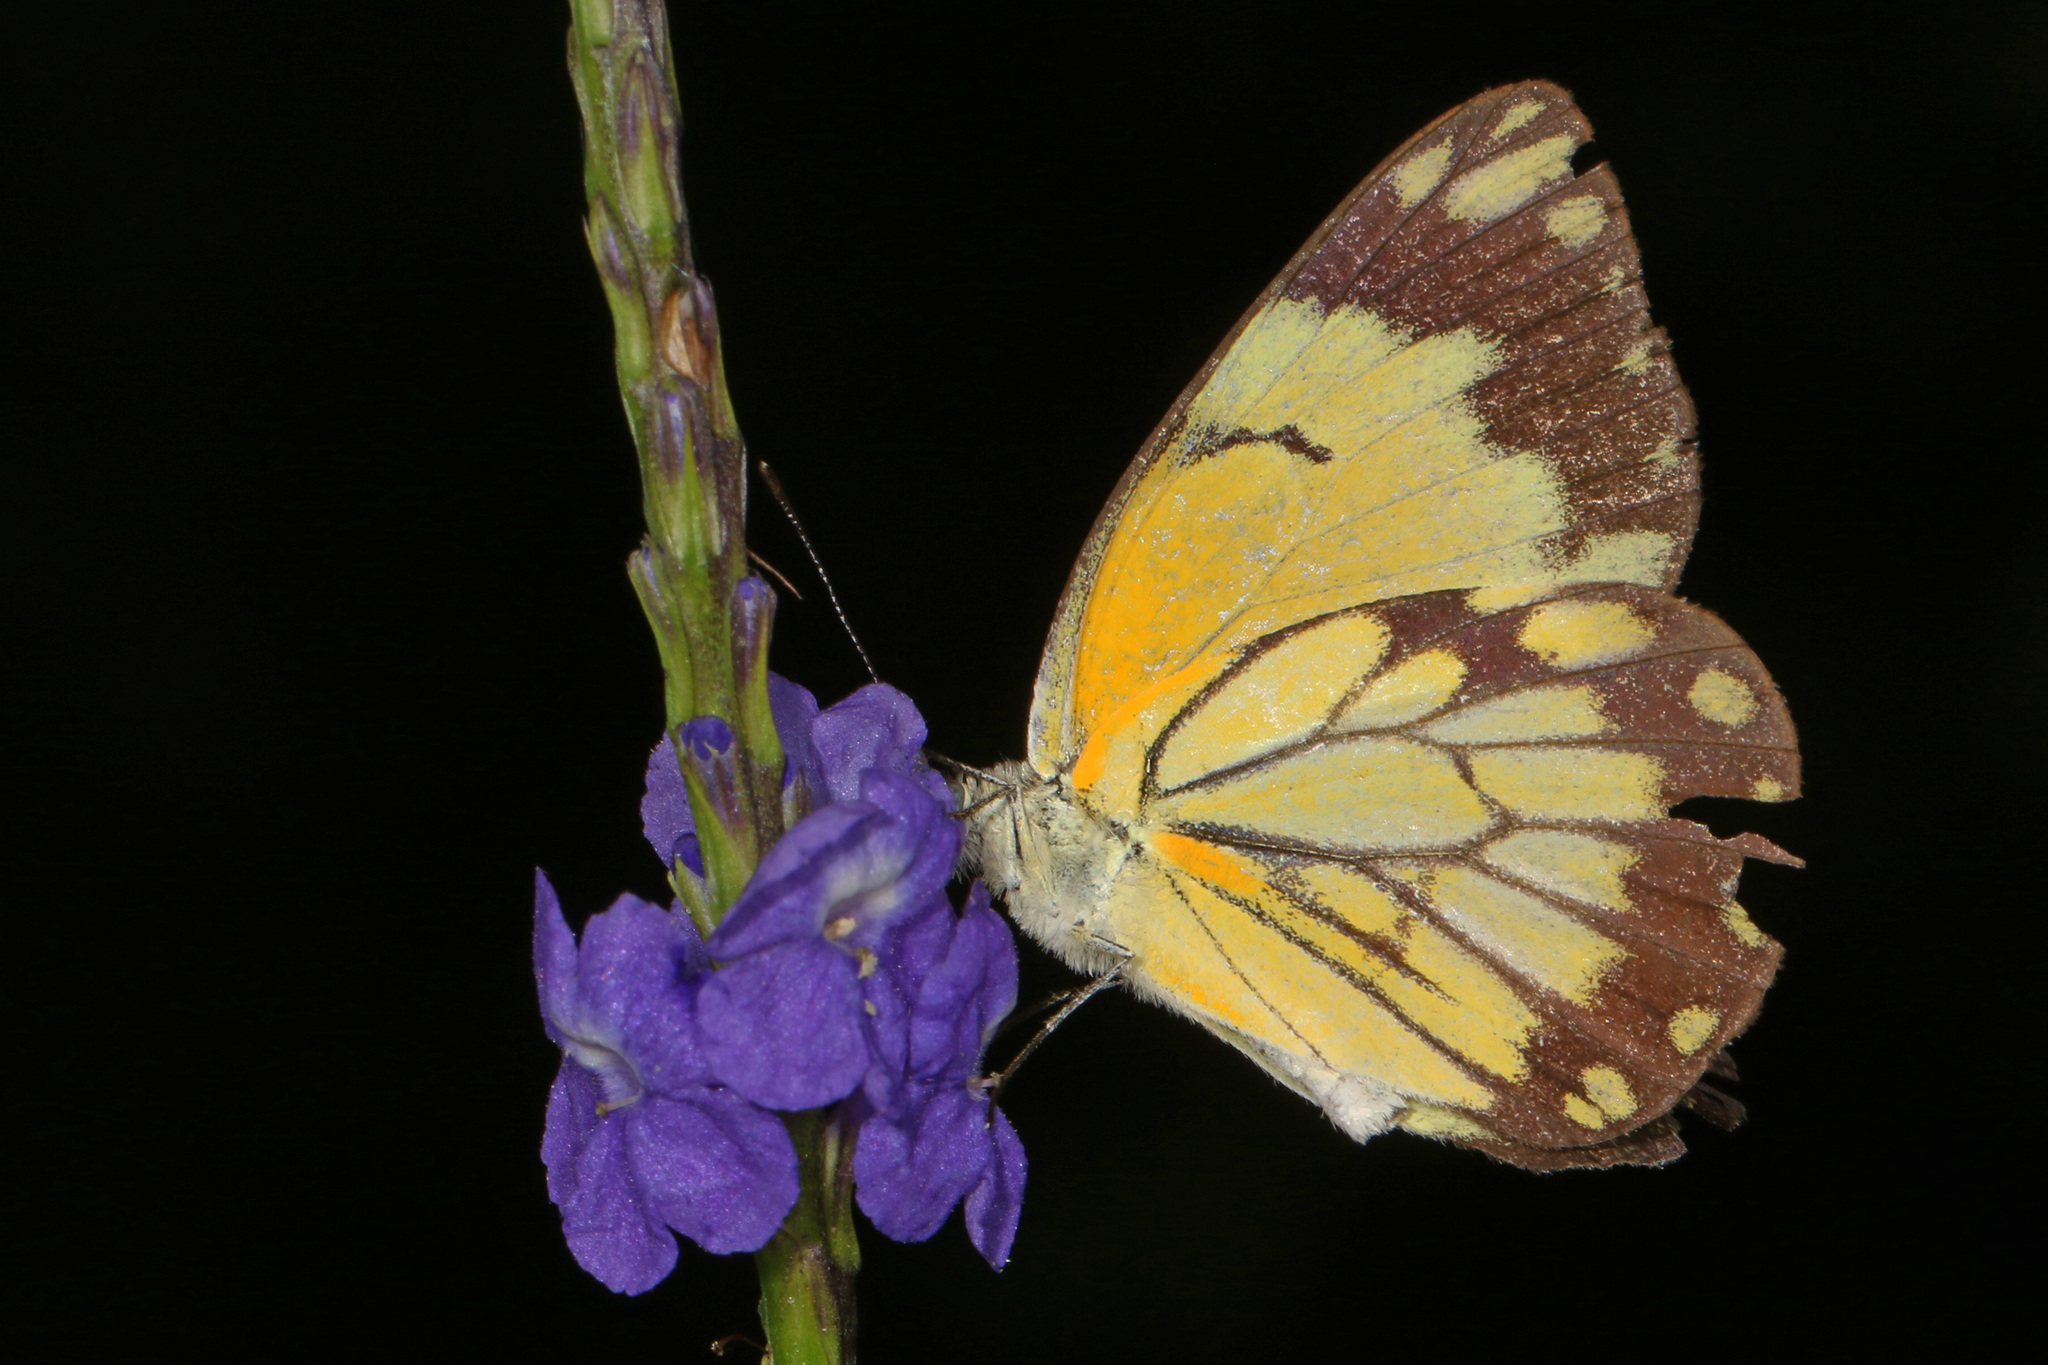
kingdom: Animalia
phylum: Arthropoda
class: Insecta
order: Lepidoptera
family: Pieridae
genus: Belenois
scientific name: Belenois creona
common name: African caper white
